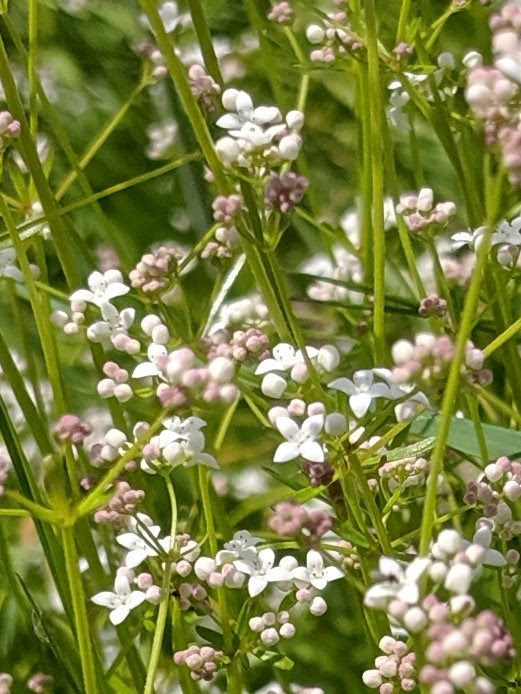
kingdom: Plantae
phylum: Tracheophyta
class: Magnoliopsida
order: Gentianales
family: Rubiaceae
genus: Galium
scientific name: Galium palustre
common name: Common marsh-bedstraw
